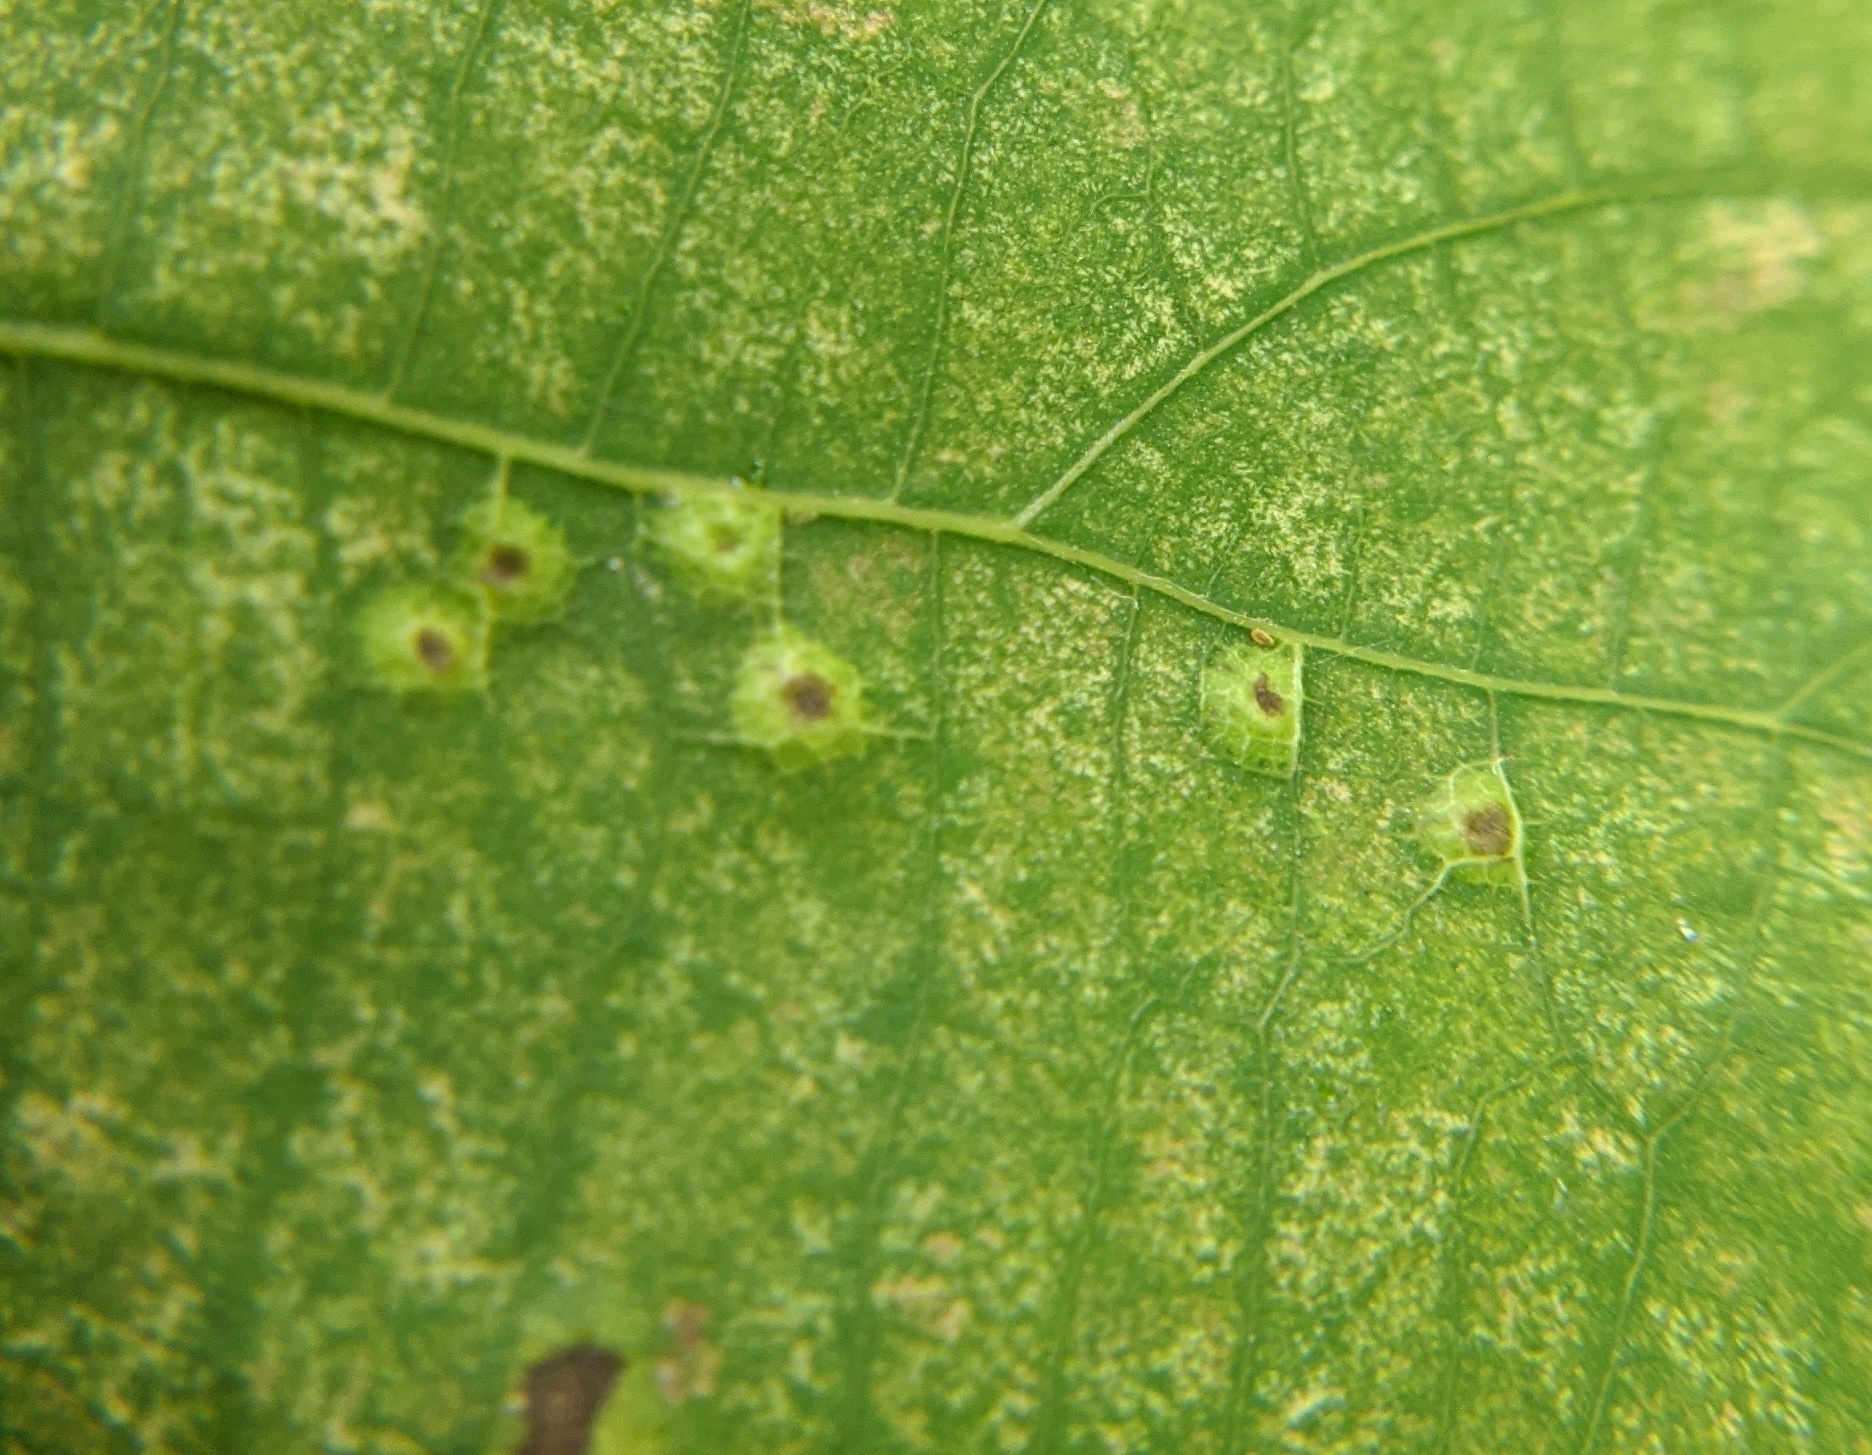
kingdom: Animalia
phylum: Arthropoda
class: Insecta
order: Diptera
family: Cecidomyiidae
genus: Caryomyia
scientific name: Caryomyia caryae
